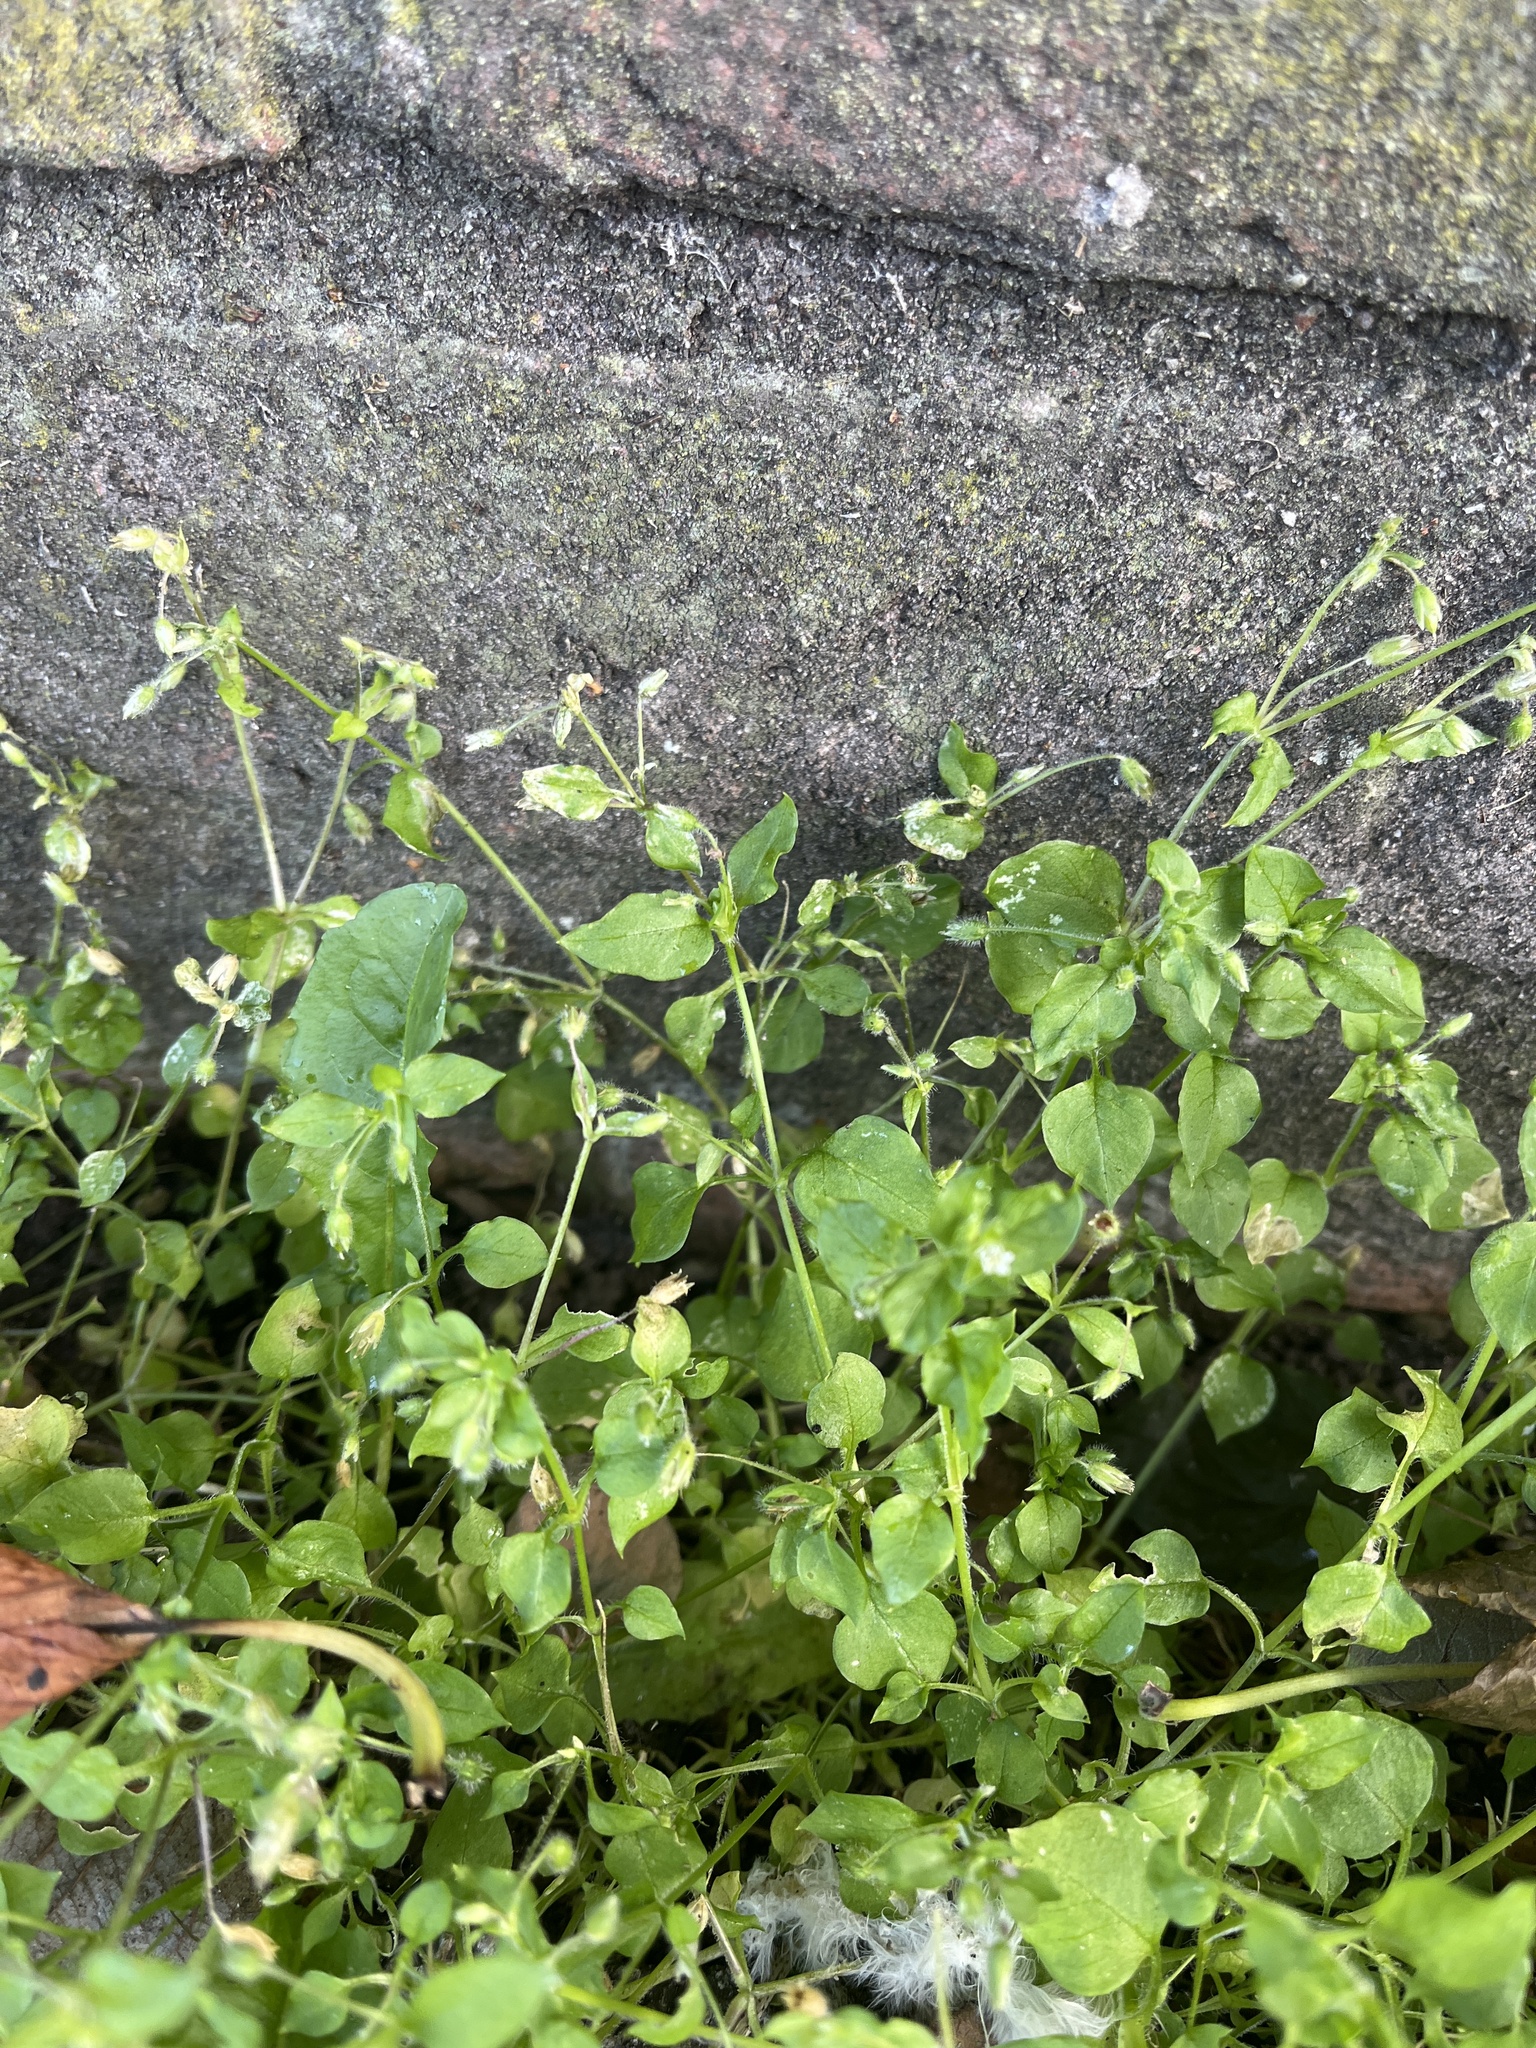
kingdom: Plantae
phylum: Tracheophyta
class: Magnoliopsida
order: Caryophyllales
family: Caryophyllaceae
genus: Stellaria
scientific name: Stellaria media
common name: Common chickweed
